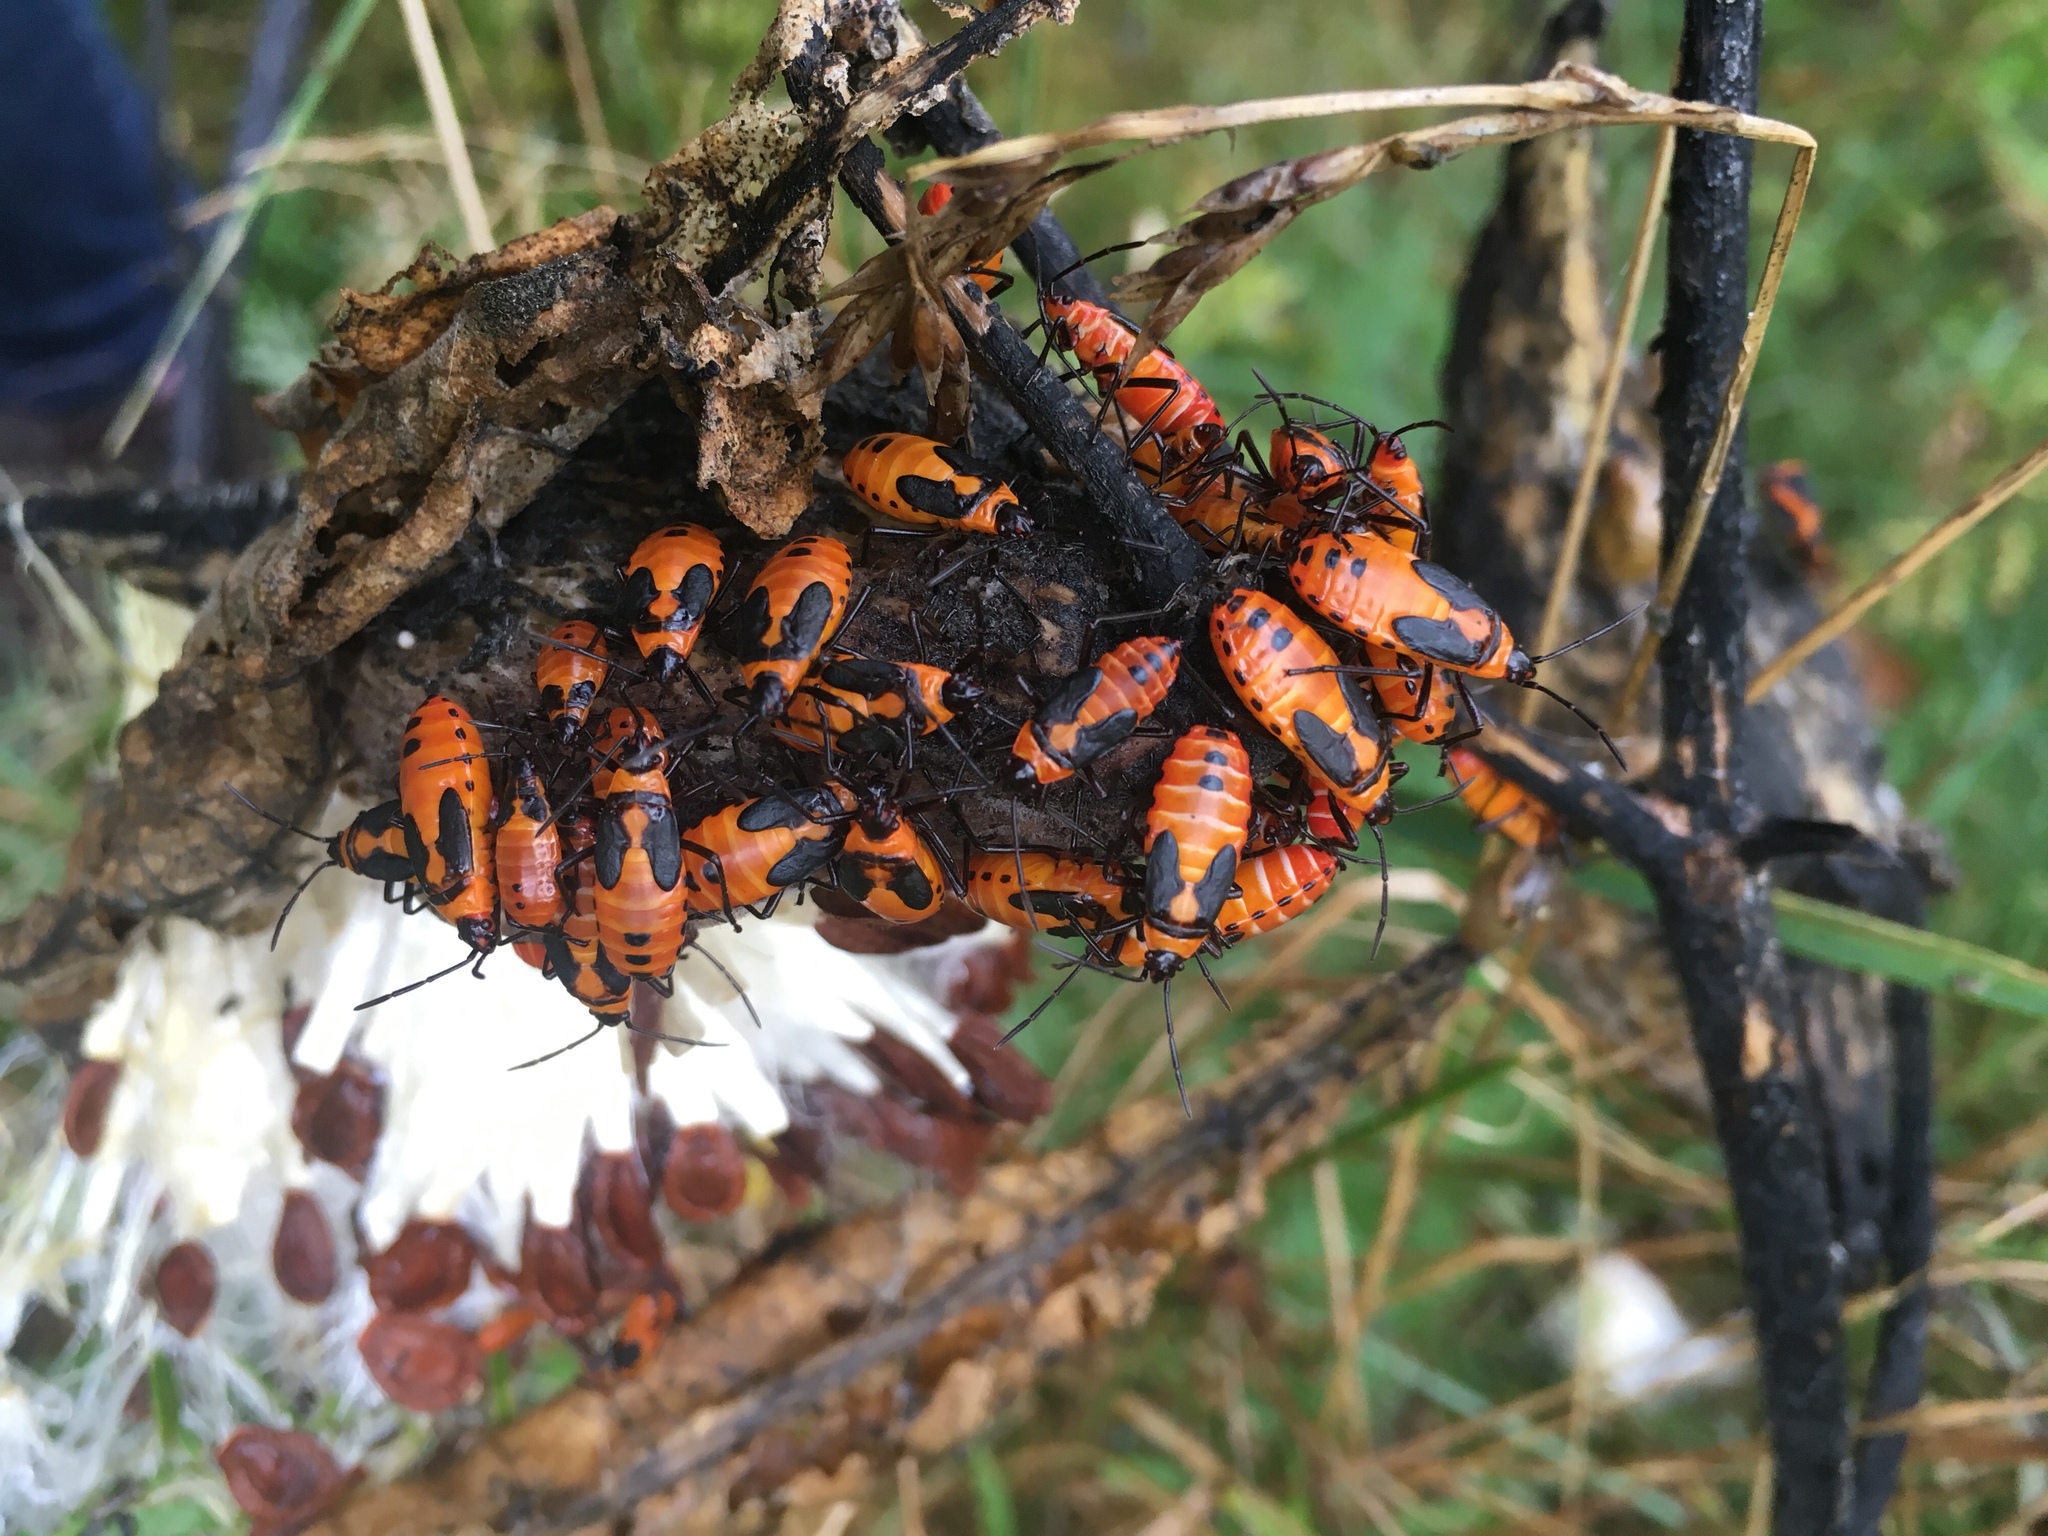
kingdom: Animalia
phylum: Arthropoda
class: Insecta
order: Hemiptera
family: Lygaeidae
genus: Oncopeltus
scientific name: Oncopeltus fasciatus
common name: Large milkweed bug
